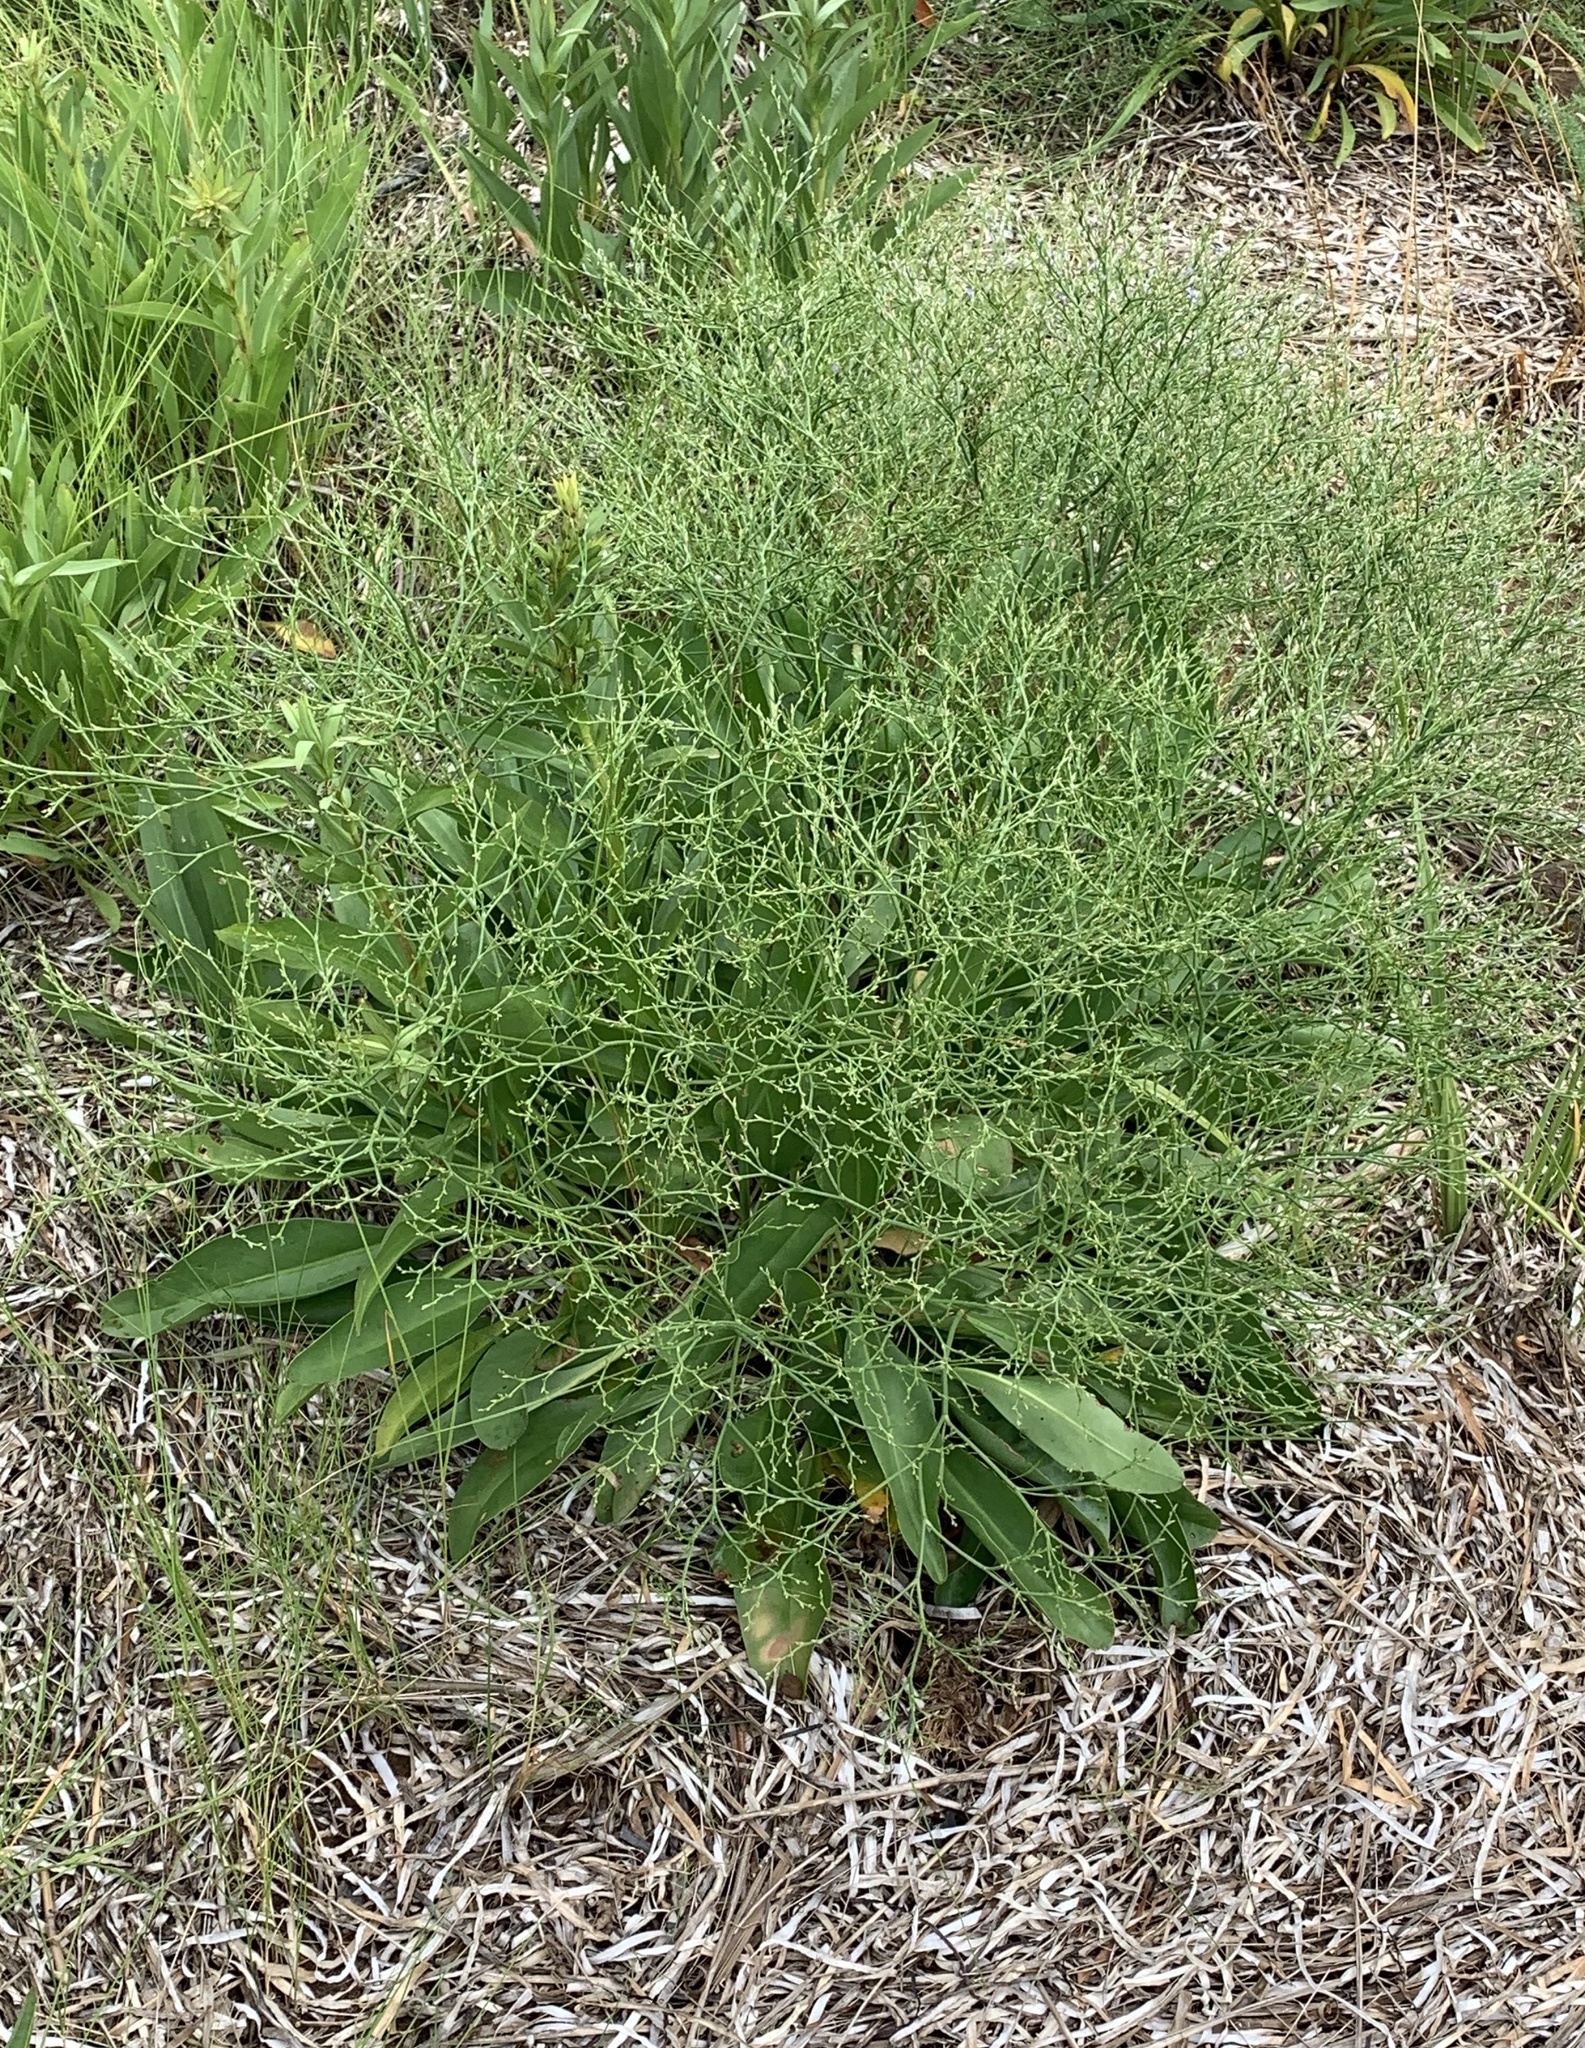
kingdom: Plantae
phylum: Tracheophyta
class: Magnoliopsida
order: Caryophyllales
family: Plumbaginaceae
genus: Limonium
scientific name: Limonium carolinianum
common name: Carolina sea lavender
